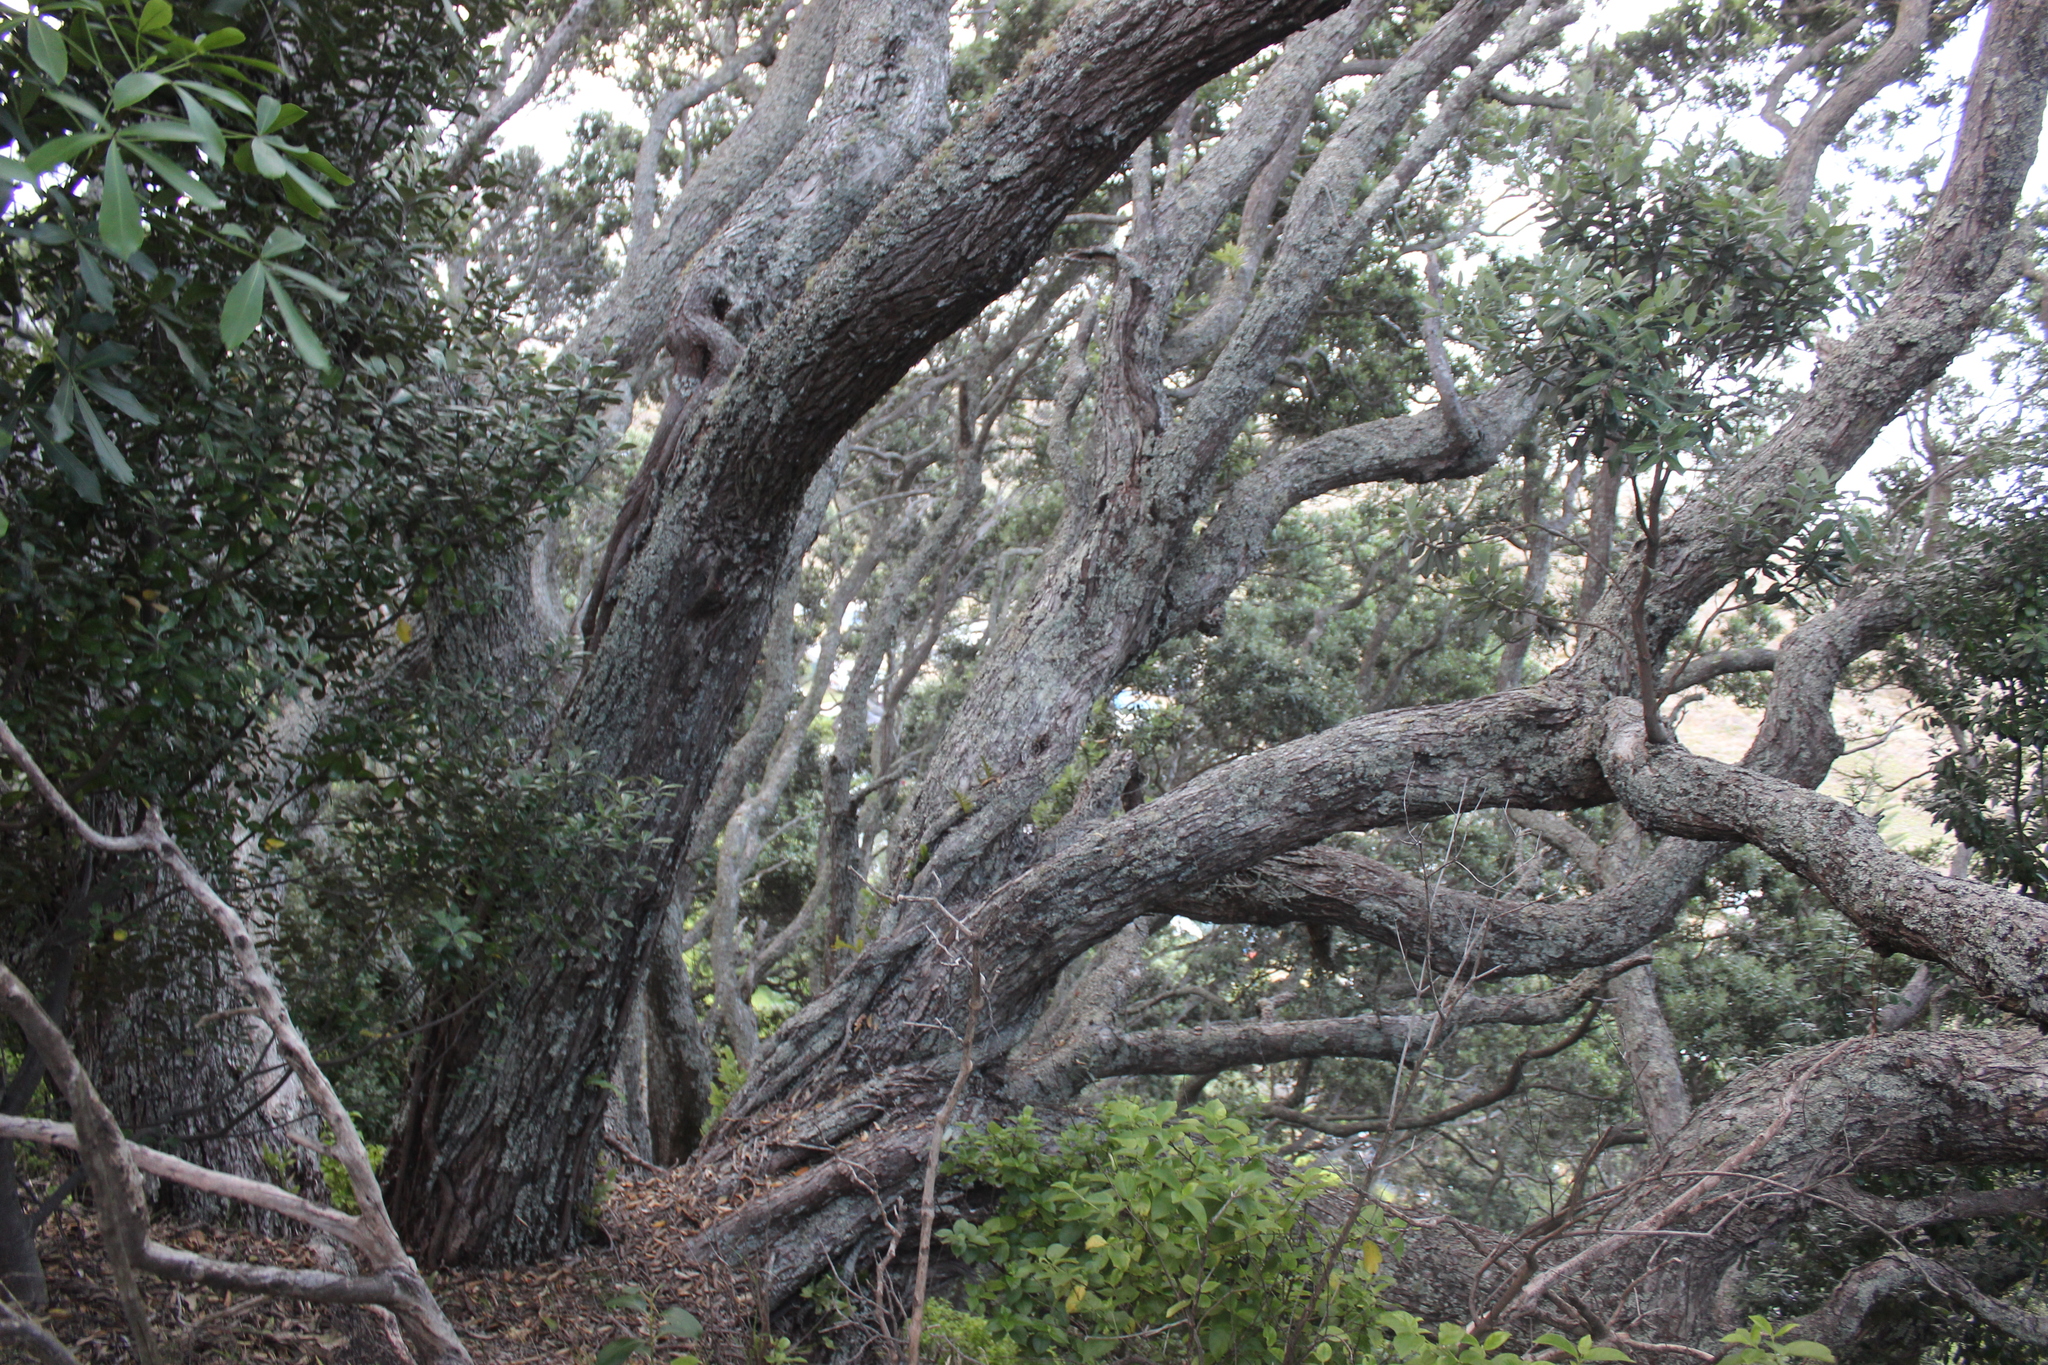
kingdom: Plantae
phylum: Tracheophyta
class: Magnoliopsida
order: Myrtales
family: Myrtaceae
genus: Metrosideros
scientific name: Metrosideros excelsa
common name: New zealand christmastree
